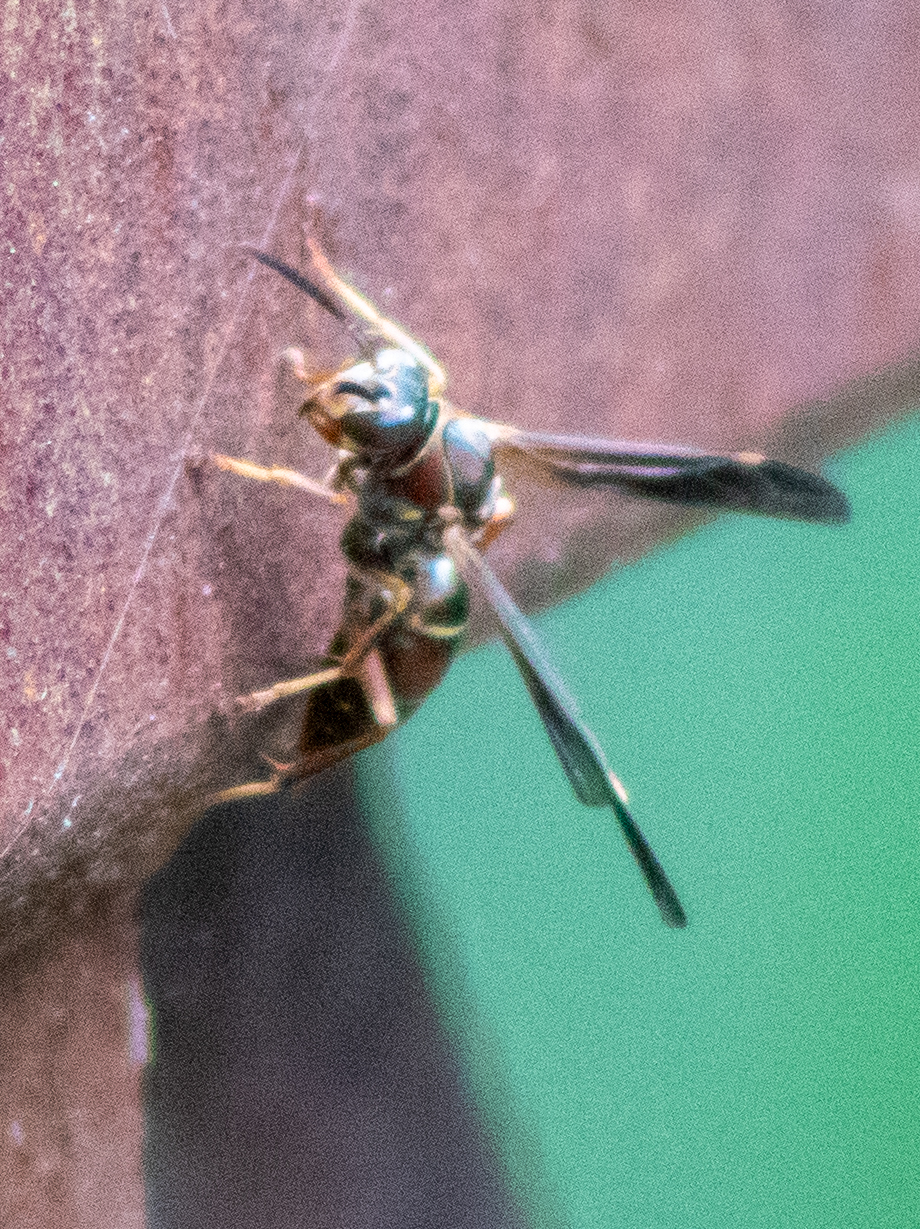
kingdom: Animalia
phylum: Arthropoda
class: Insecta
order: Hymenoptera
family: Eumenidae
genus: Polistes
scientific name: Polistes fuscatus
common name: Dark paper wasp
